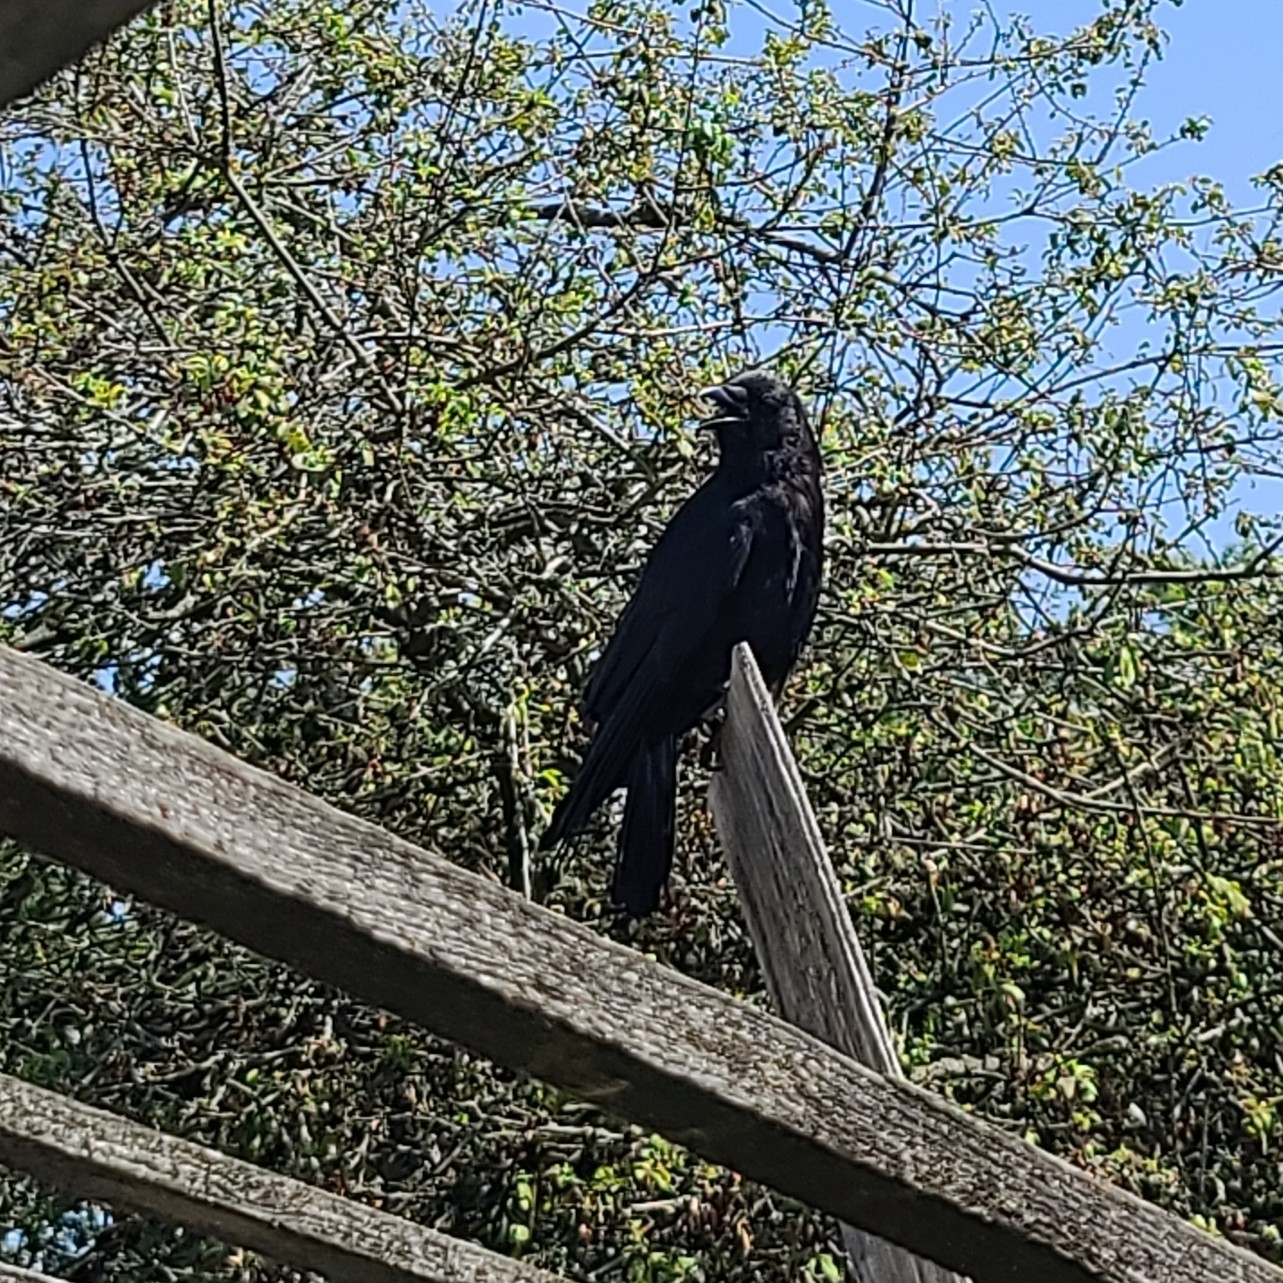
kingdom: Animalia
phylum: Chordata
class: Aves
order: Passeriformes
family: Corvidae
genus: Corvus
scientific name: Corvus brachyrhynchos
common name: American crow
